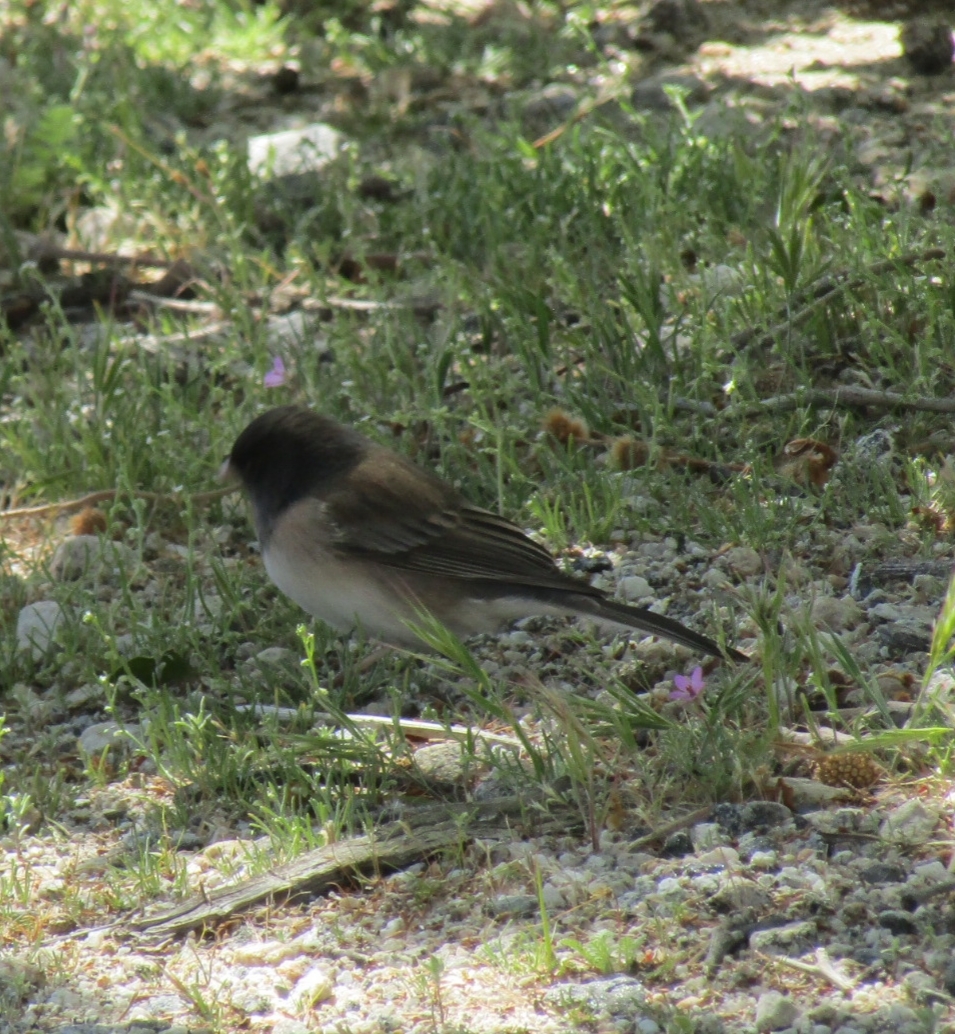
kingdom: Animalia
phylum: Chordata
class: Aves
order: Passeriformes
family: Passerellidae
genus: Junco
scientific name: Junco hyemalis
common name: Dark-eyed junco
